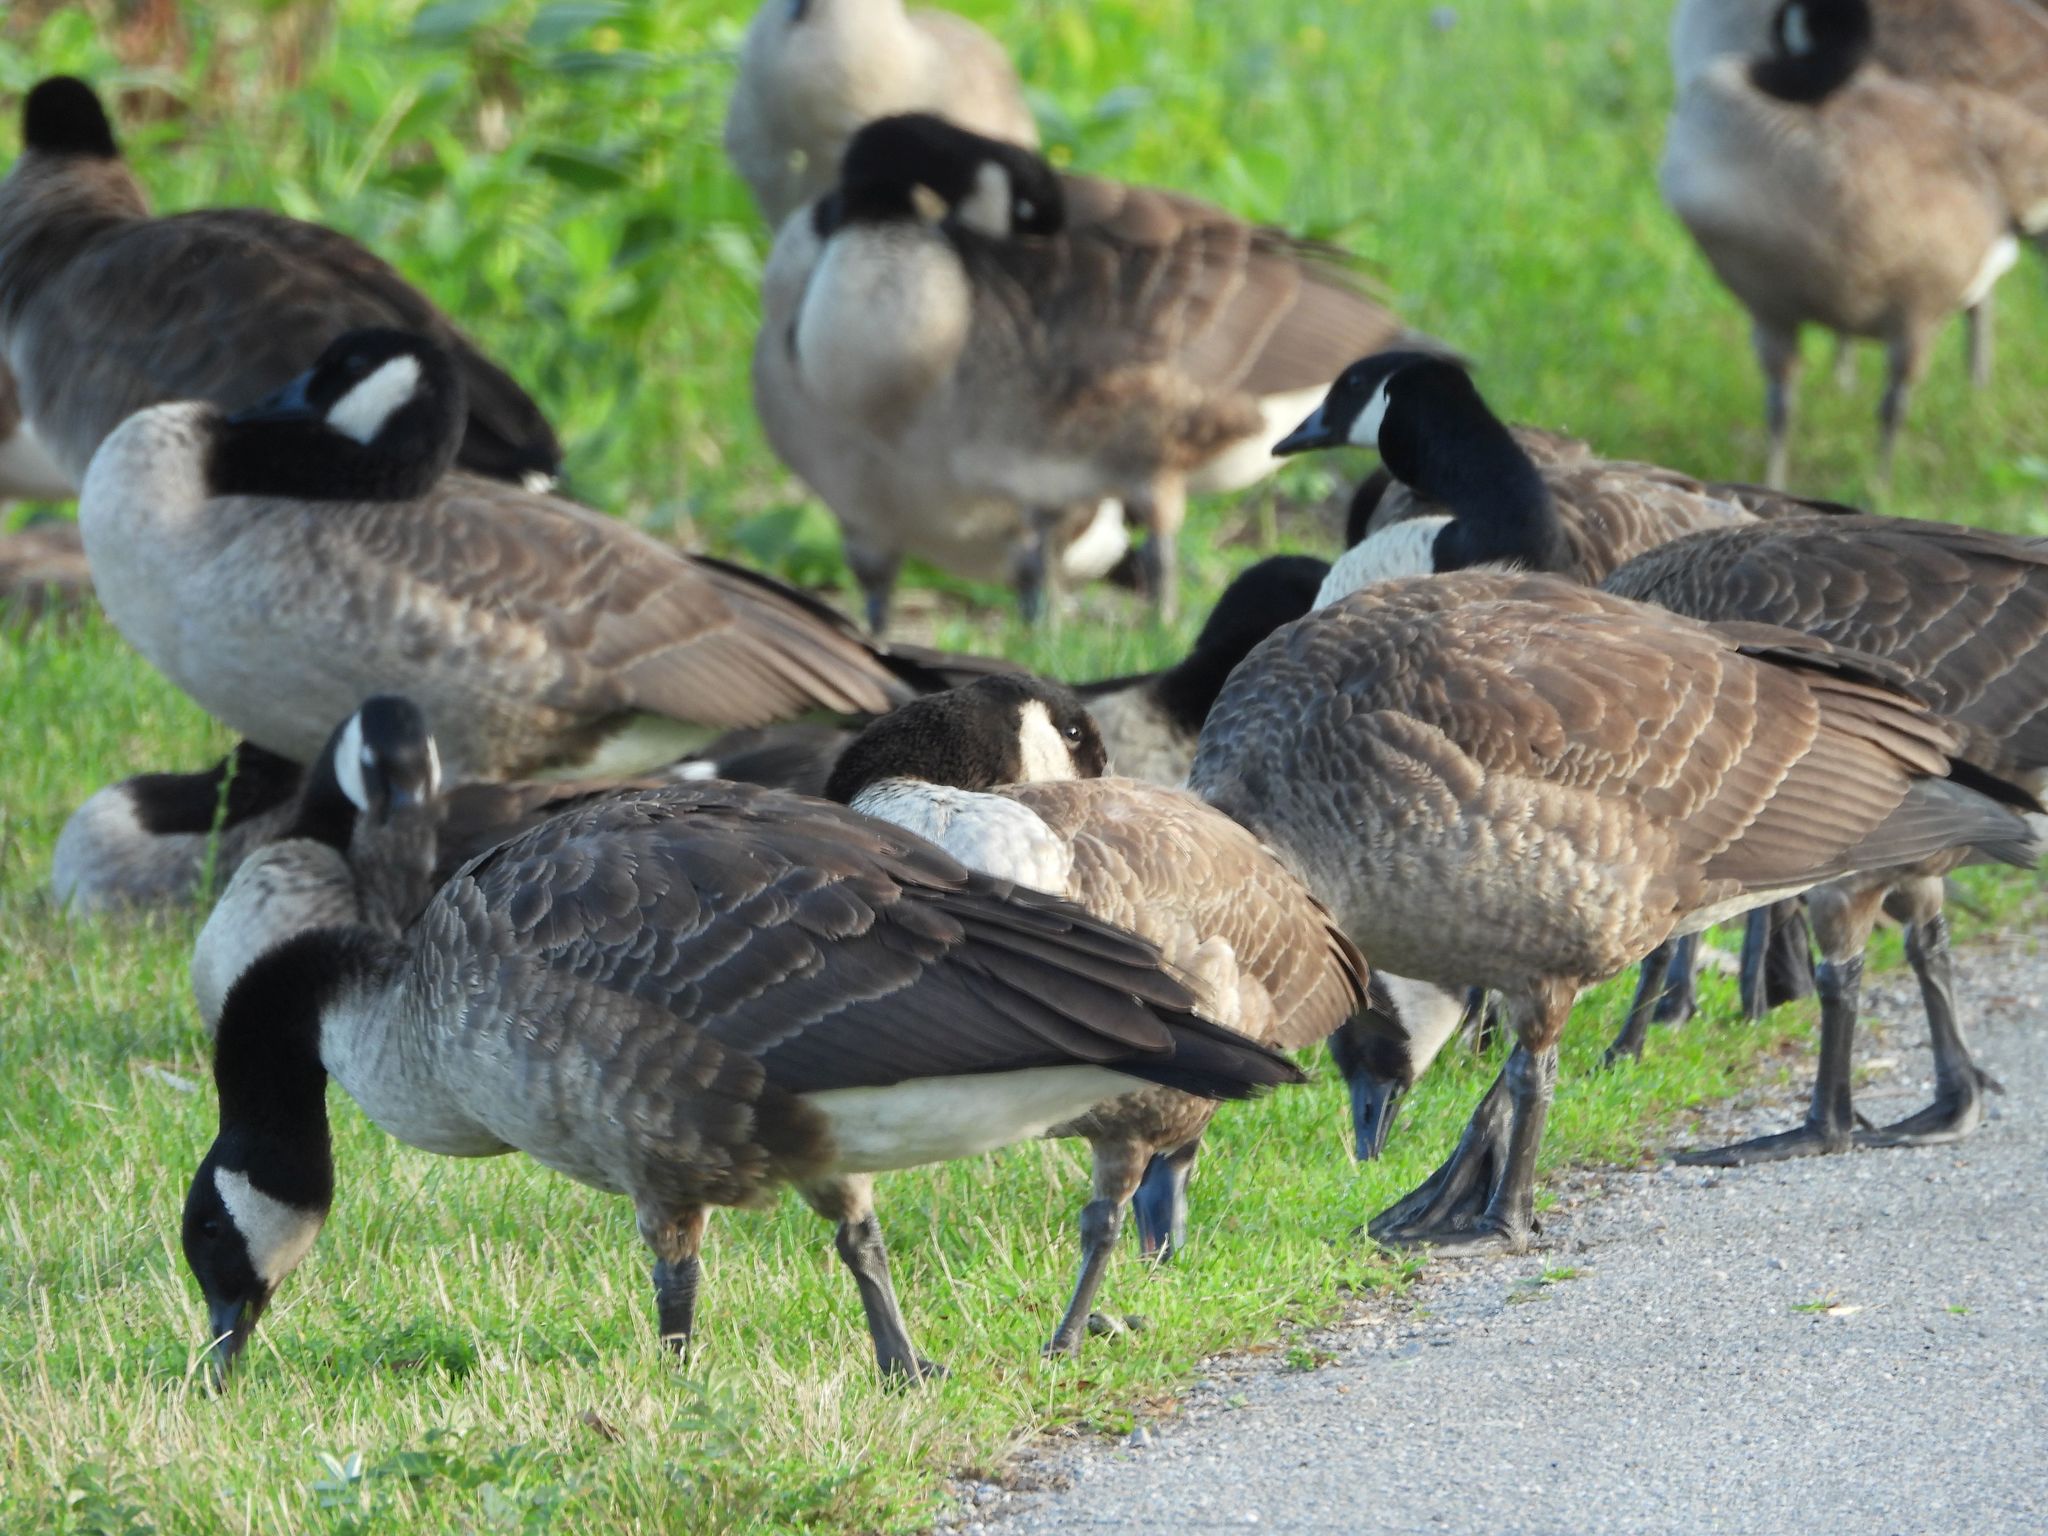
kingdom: Animalia
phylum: Chordata
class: Aves
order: Anseriformes
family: Anatidae
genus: Branta
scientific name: Branta canadensis
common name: Canada goose
